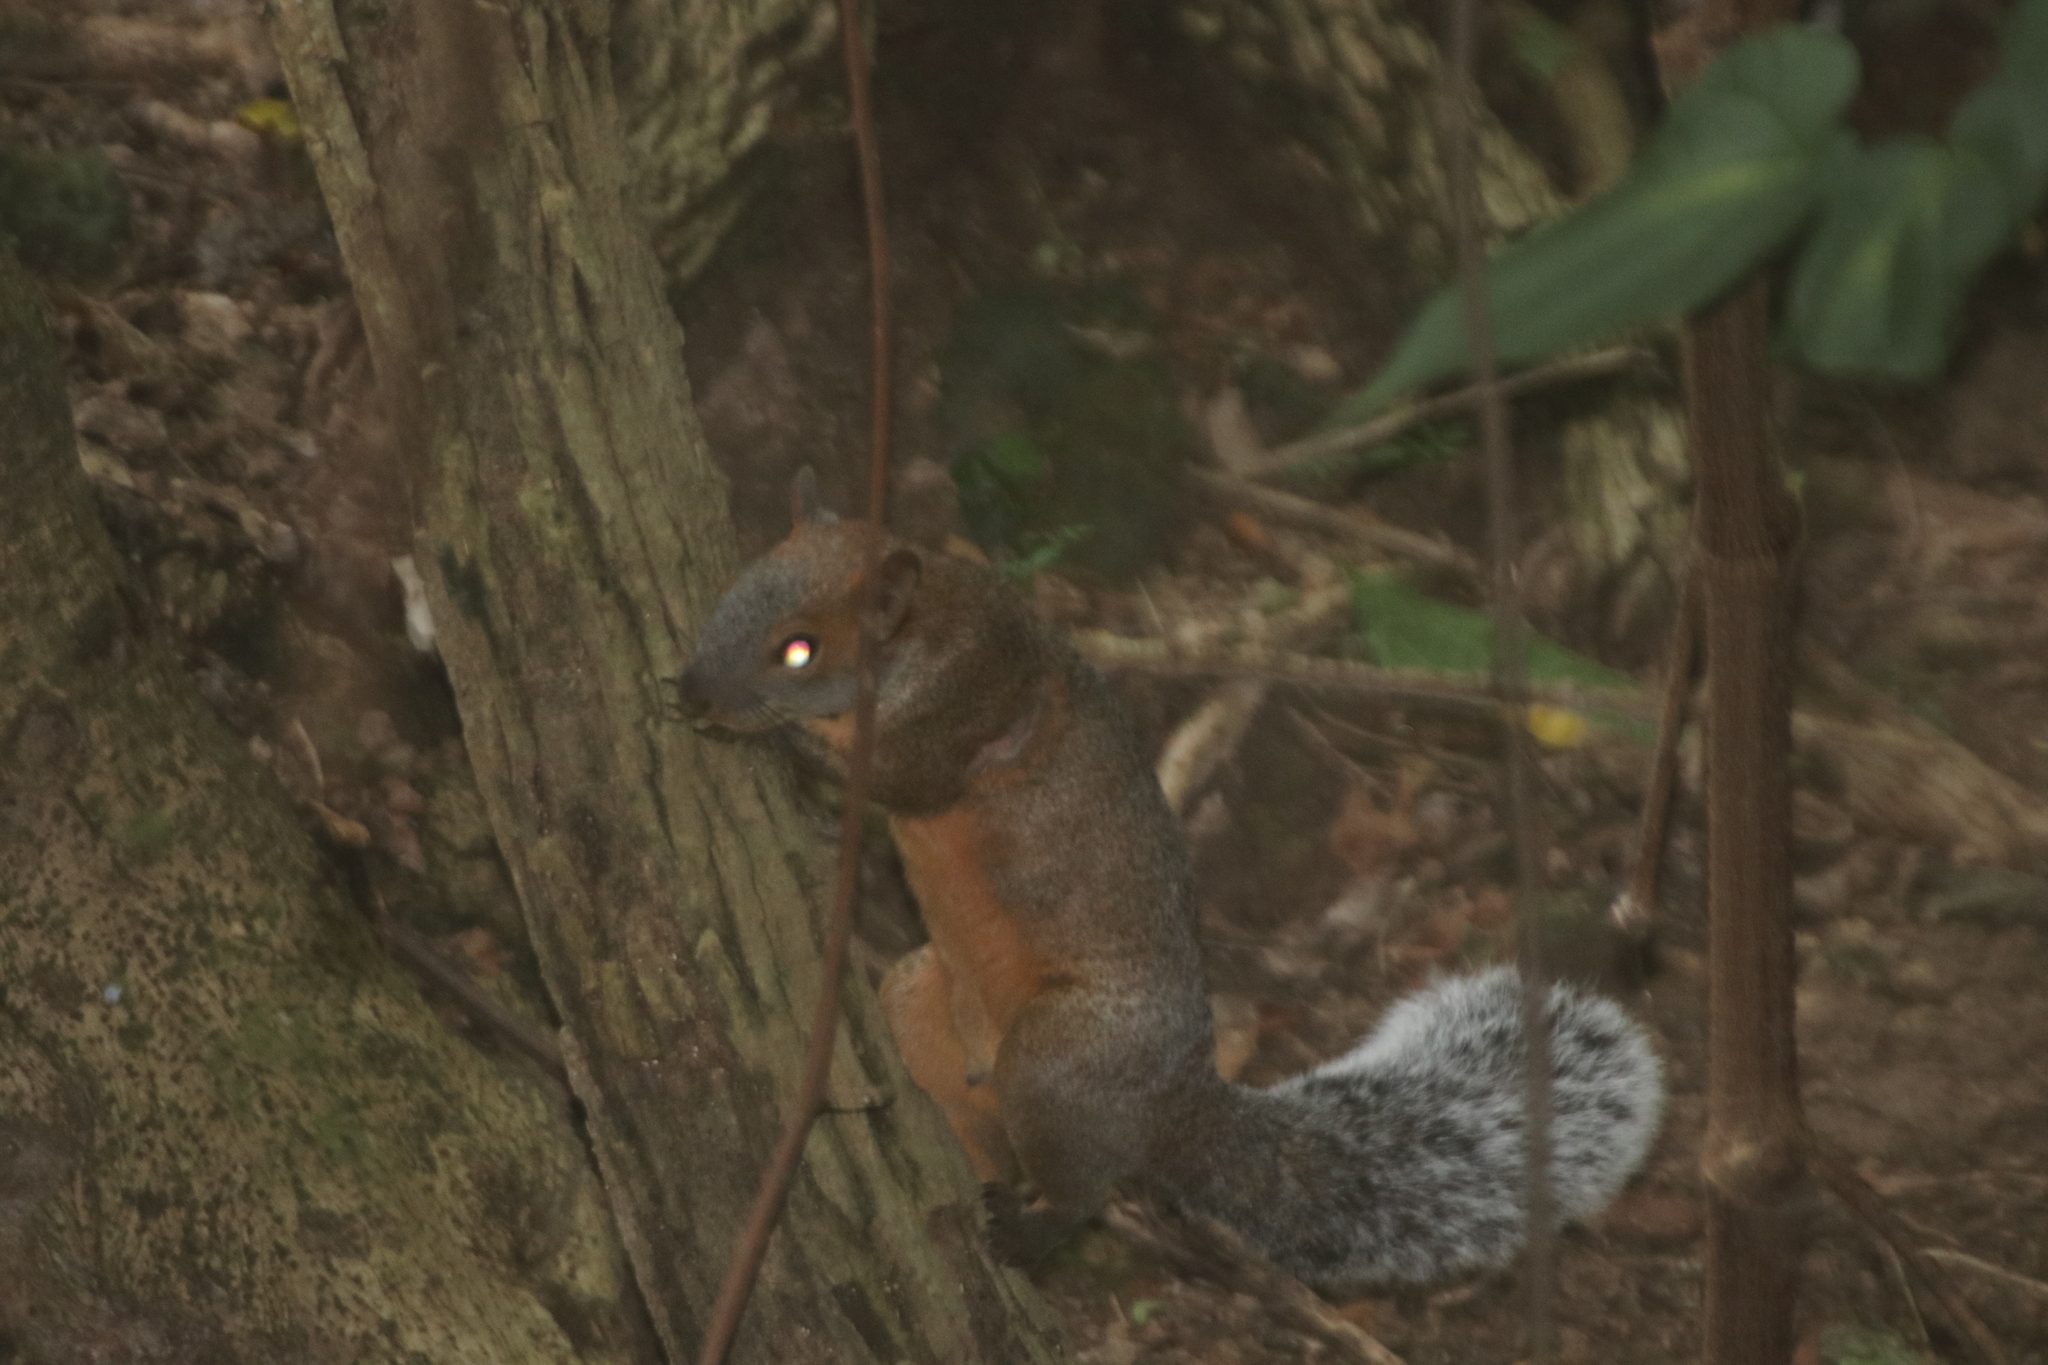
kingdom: Animalia
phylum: Chordata
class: Mammalia
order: Rodentia
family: Sciuridae
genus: Sciurus
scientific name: Sciurus aureogaster
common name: Red-bellied squirrel
